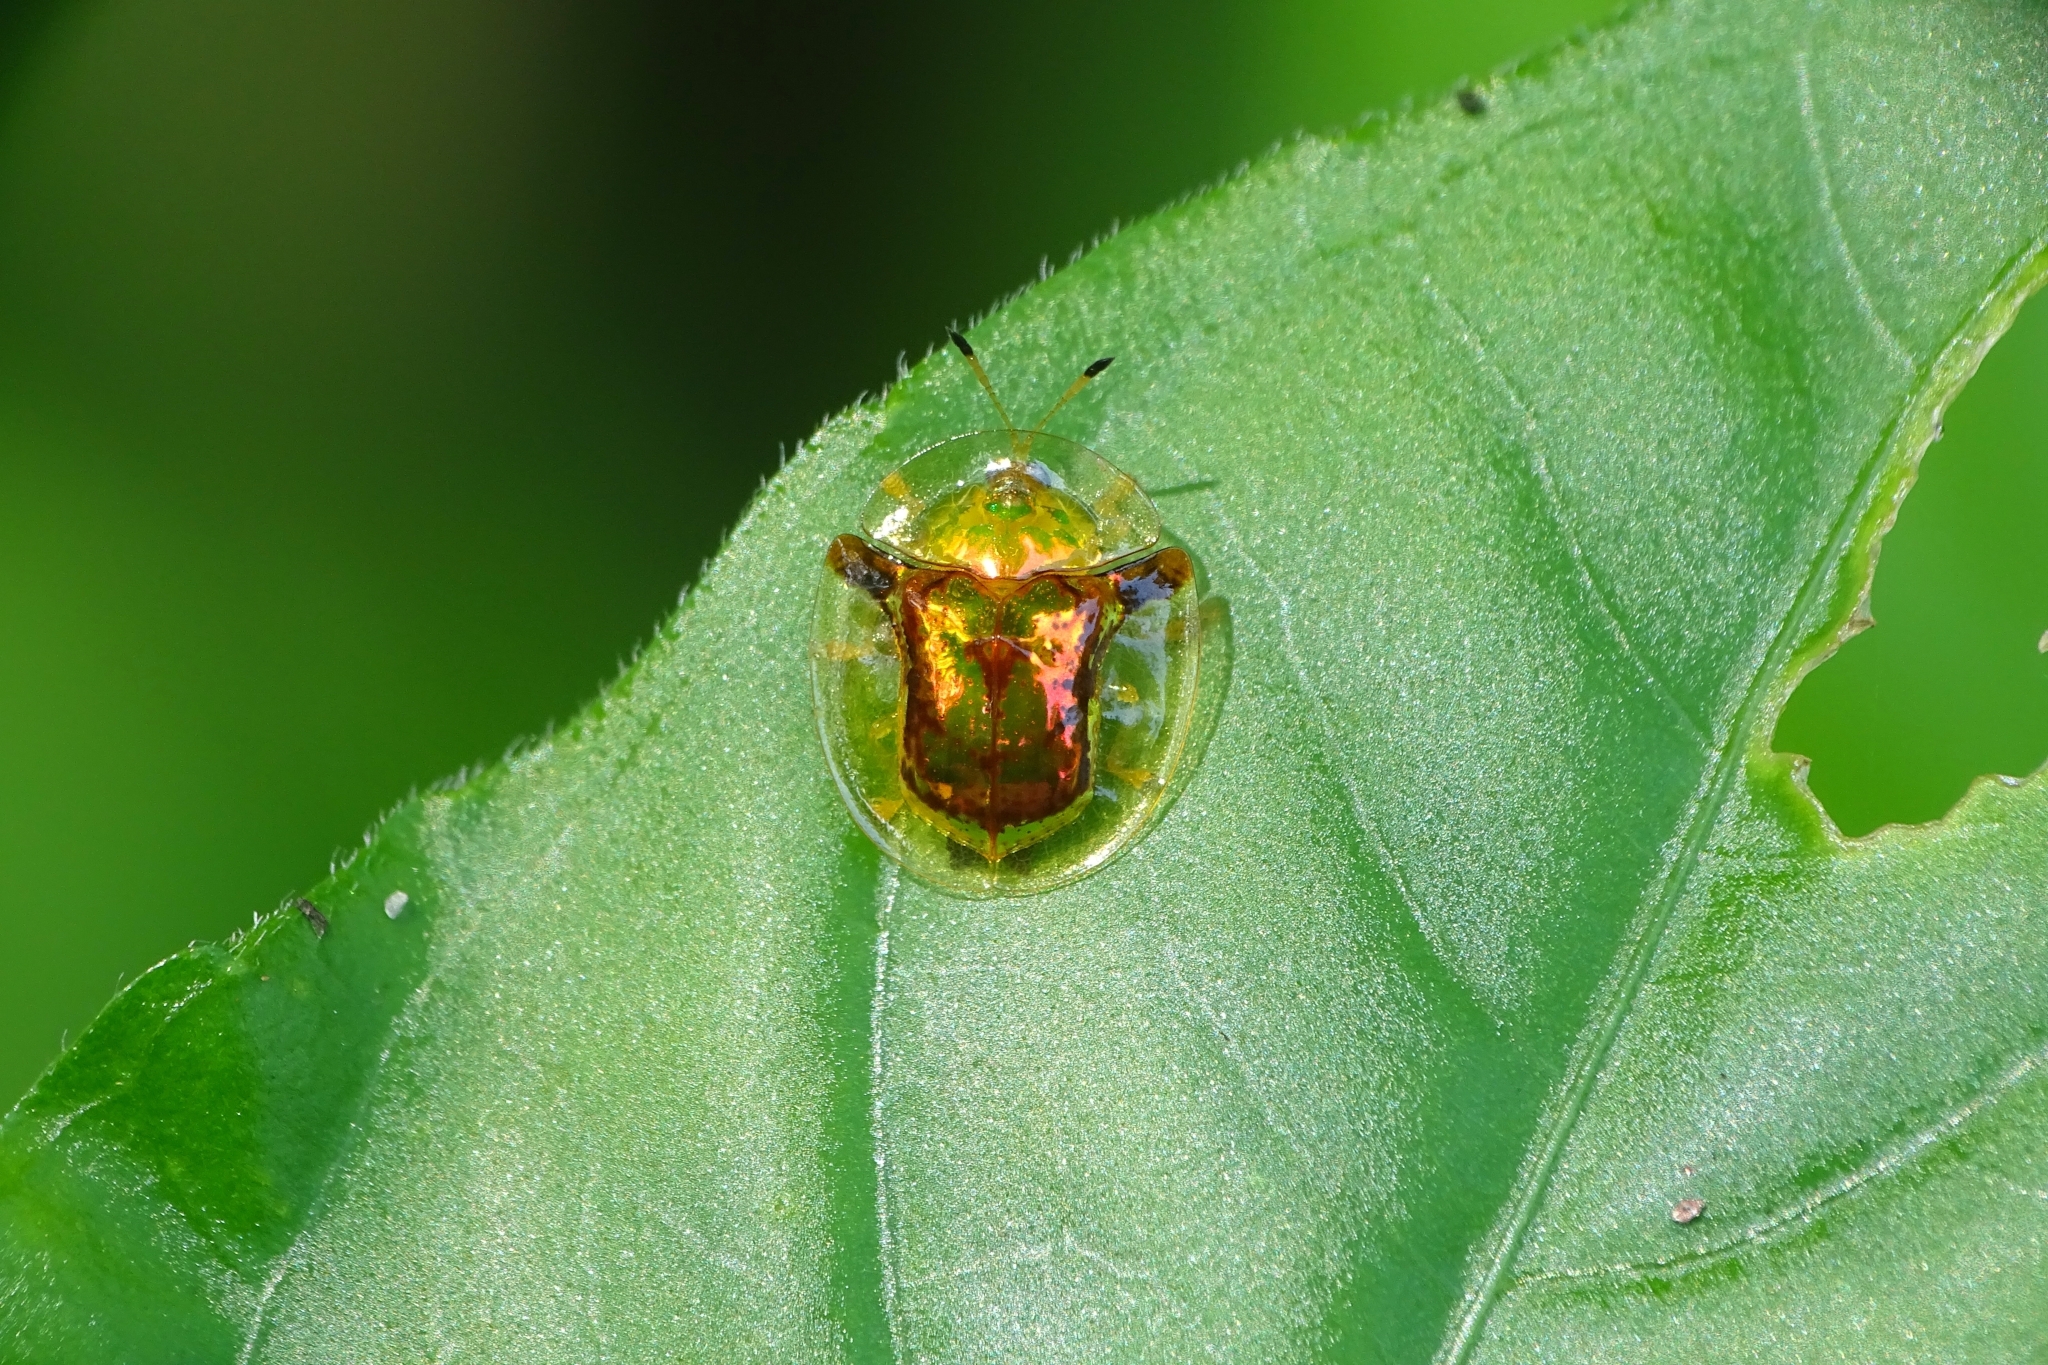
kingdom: Animalia
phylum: Arthropoda
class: Insecta
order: Coleoptera
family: Chrysomelidae
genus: Aspidimorpha
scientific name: Aspidimorpha furcata
